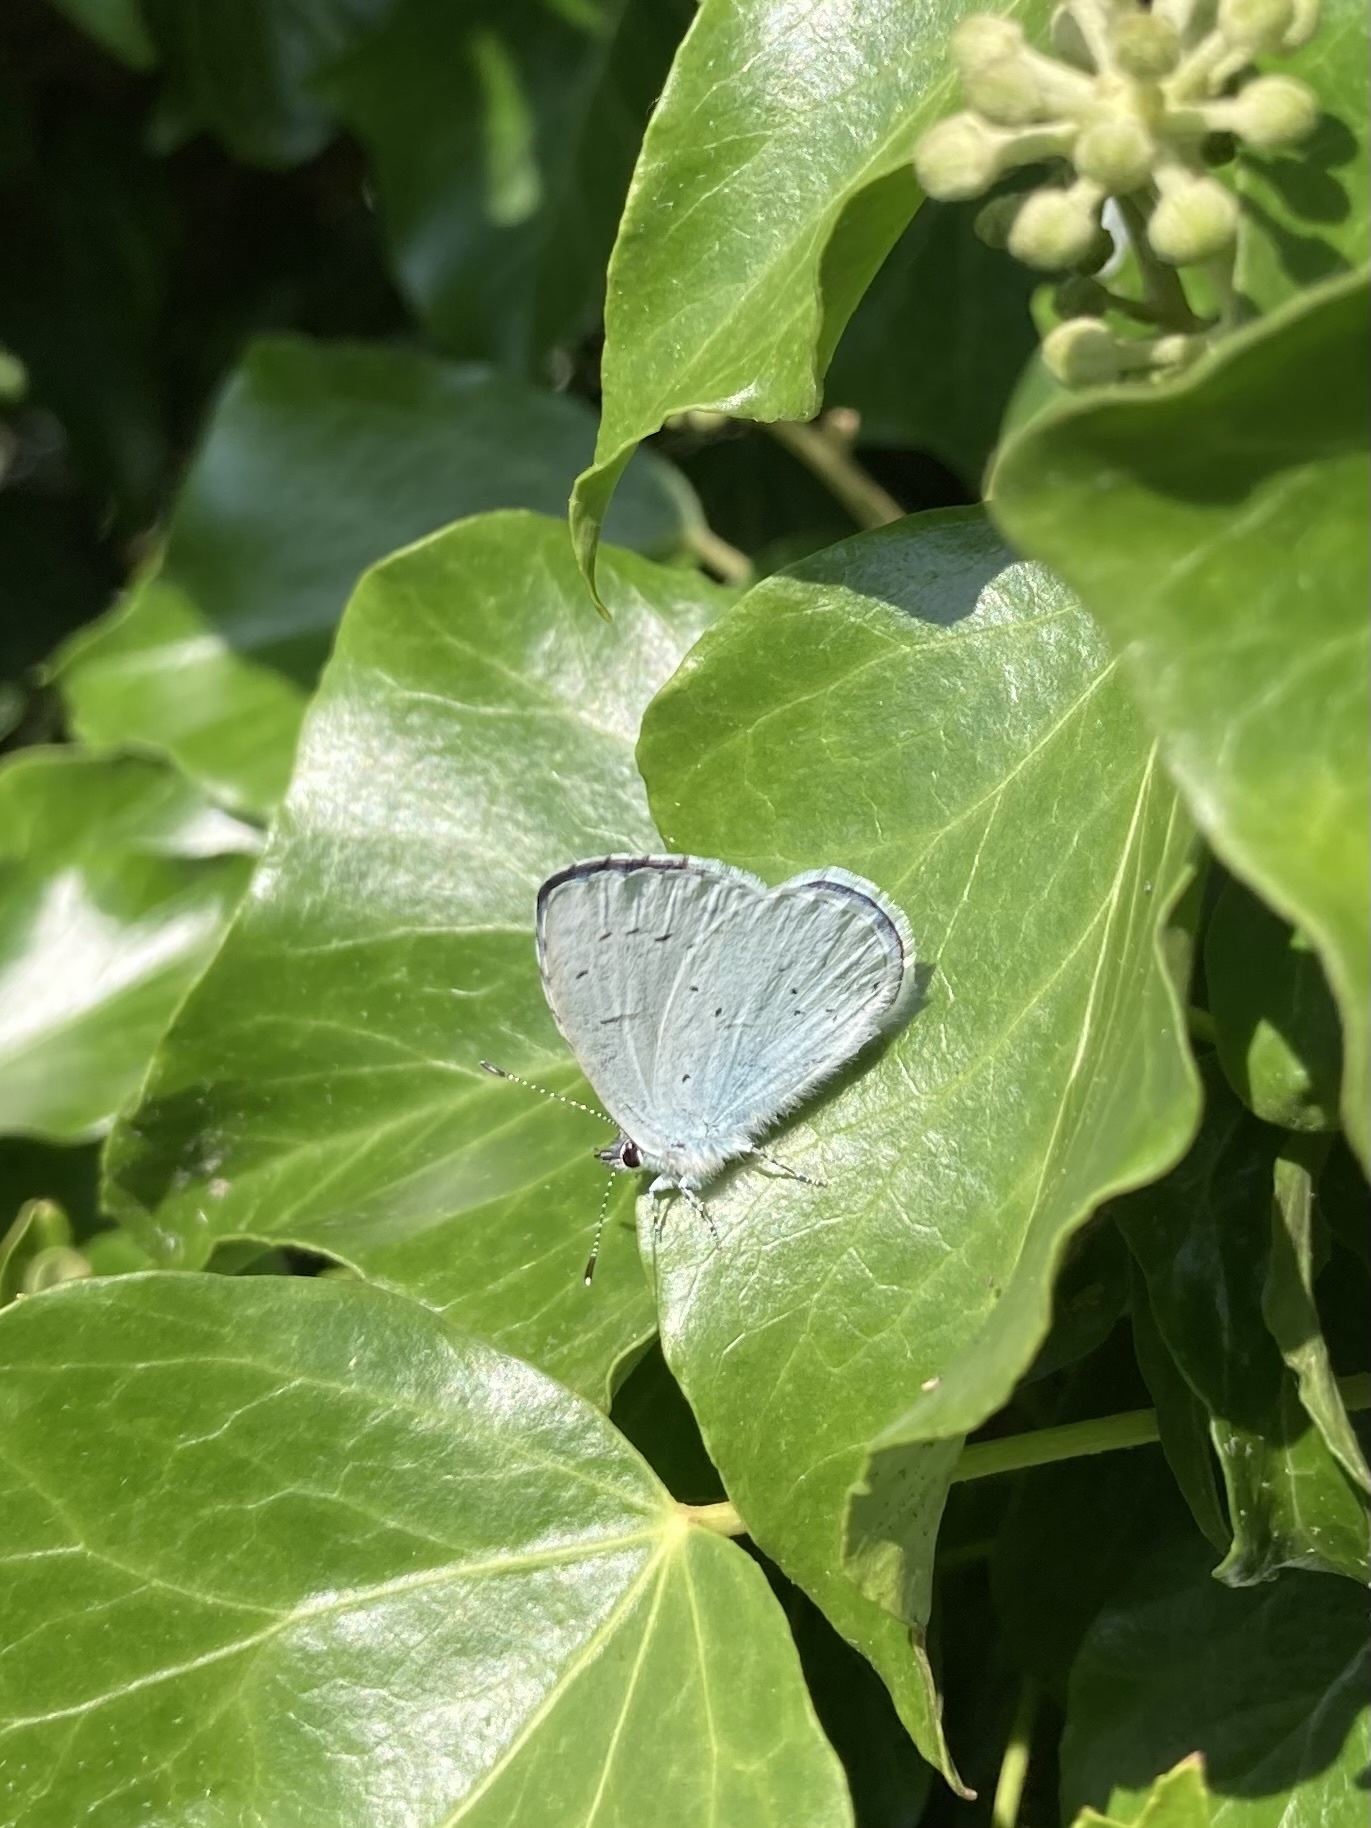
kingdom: Animalia
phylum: Arthropoda
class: Insecta
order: Lepidoptera
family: Lycaenidae
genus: Celastrina
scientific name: Celastrina argiolus
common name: Holly blue
